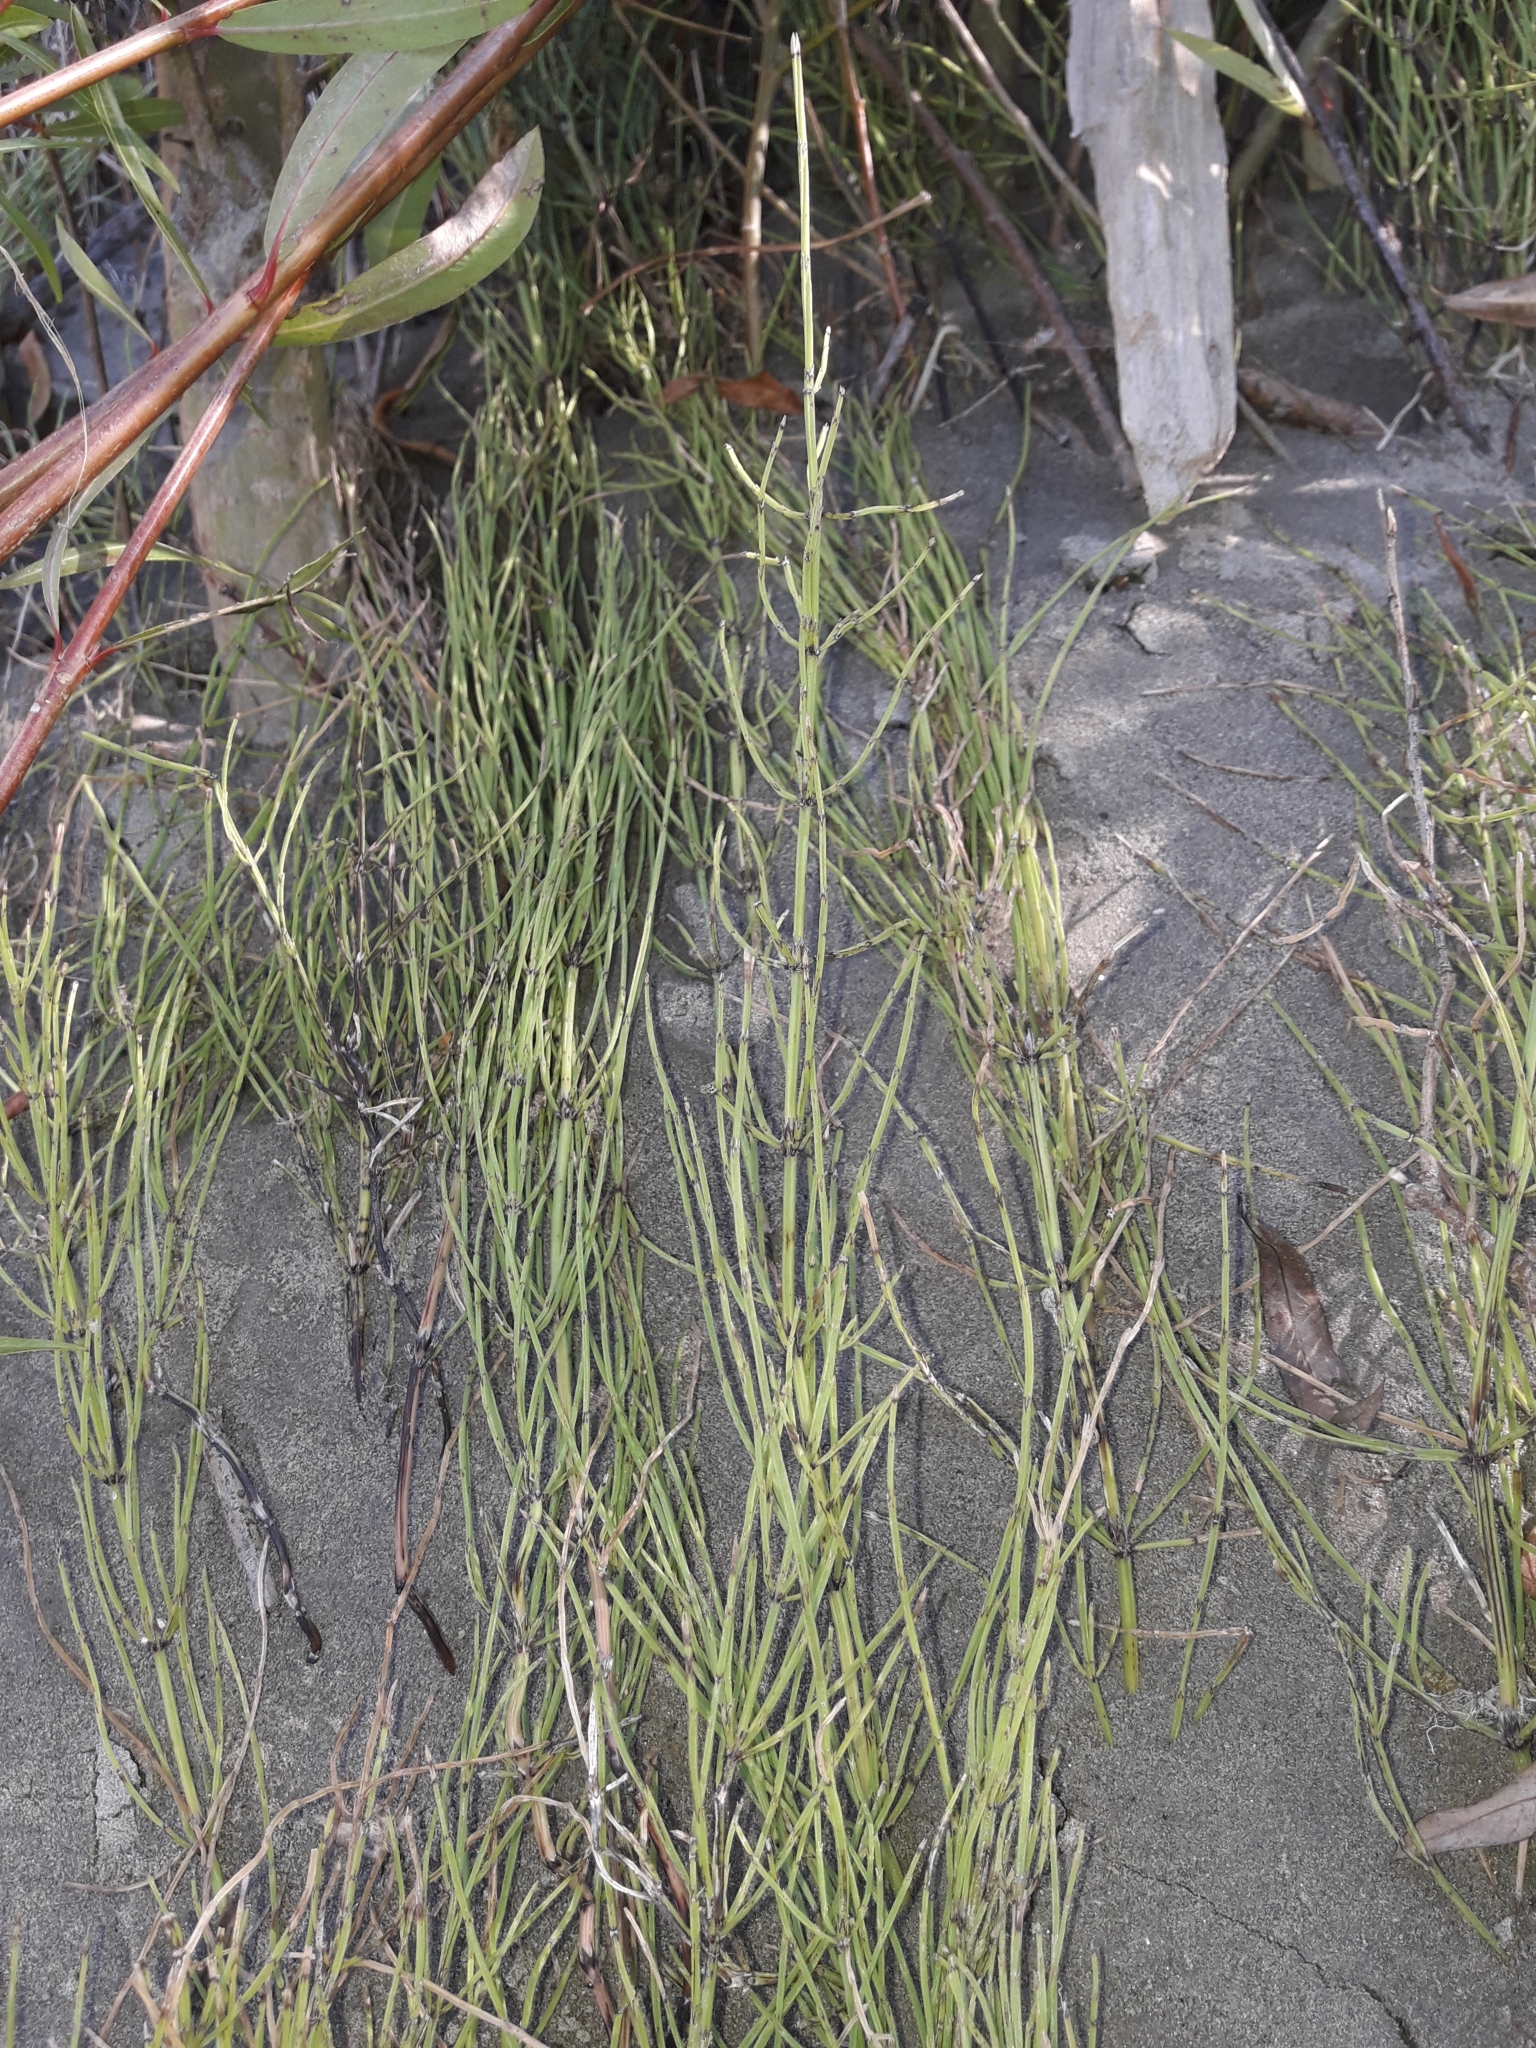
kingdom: Plantae
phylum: Tracheophyta
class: Polypodiopsida
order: Equisetales
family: Equisetaceae
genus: Equisetum
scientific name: Equisetum arvense
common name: Field horsetail
